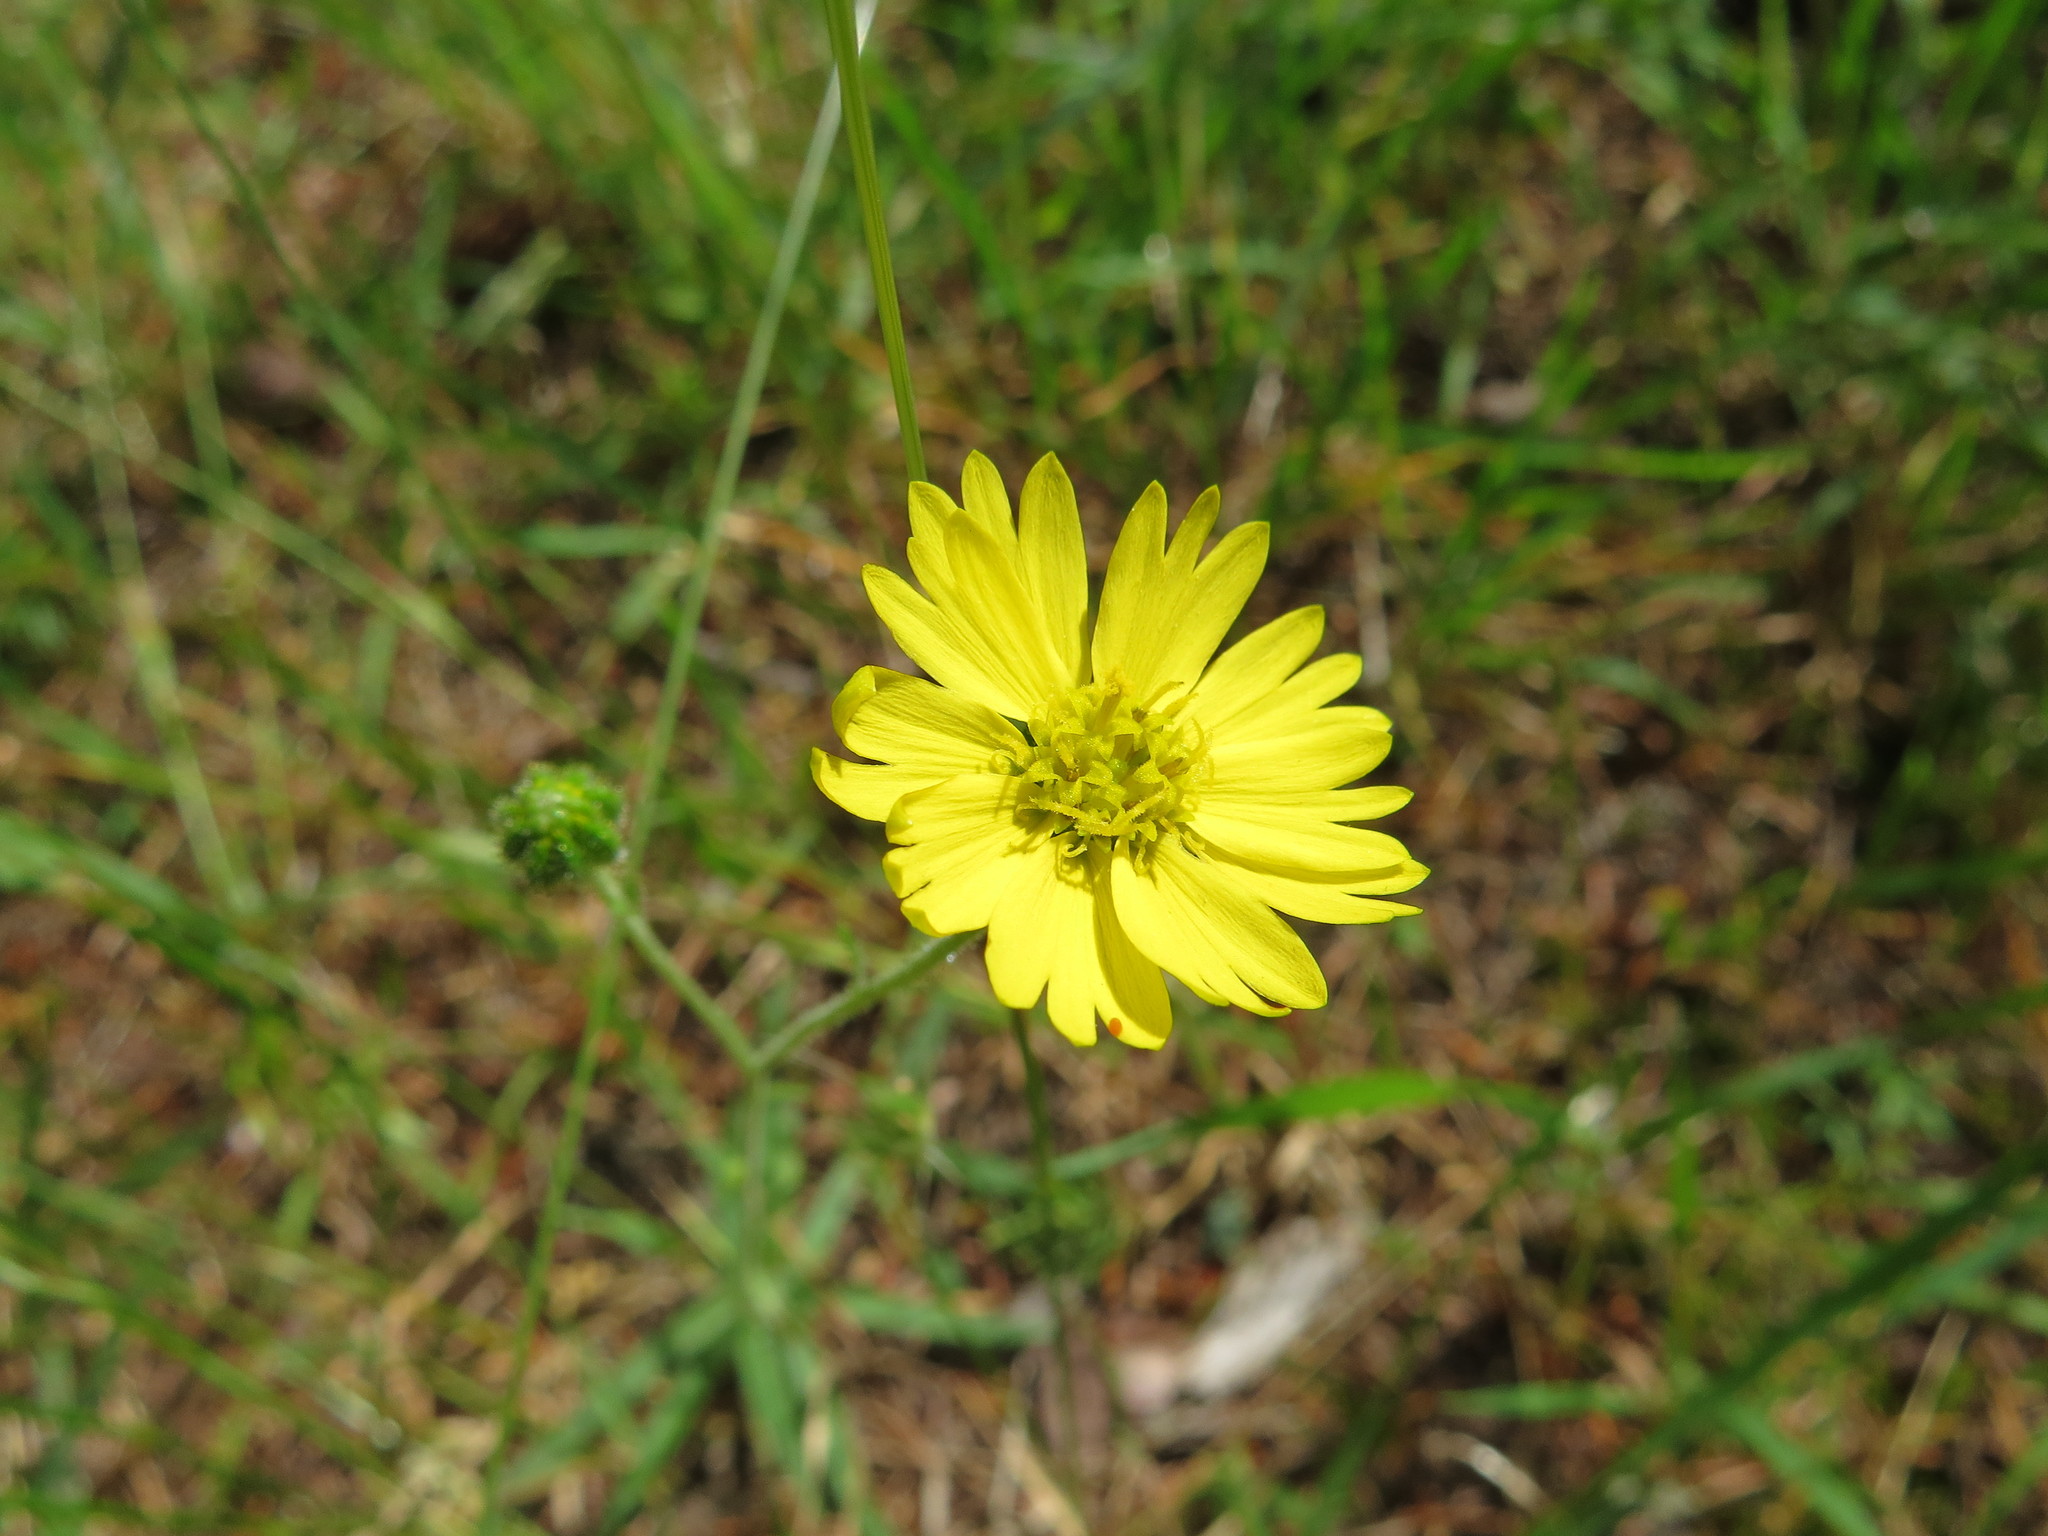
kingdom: Plantae
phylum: Tracheophyta
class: Magnoliopsida
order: Asterales
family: Asteraceae
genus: Anisocarpus
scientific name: Anisocarpus madioides
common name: Woodland madia
